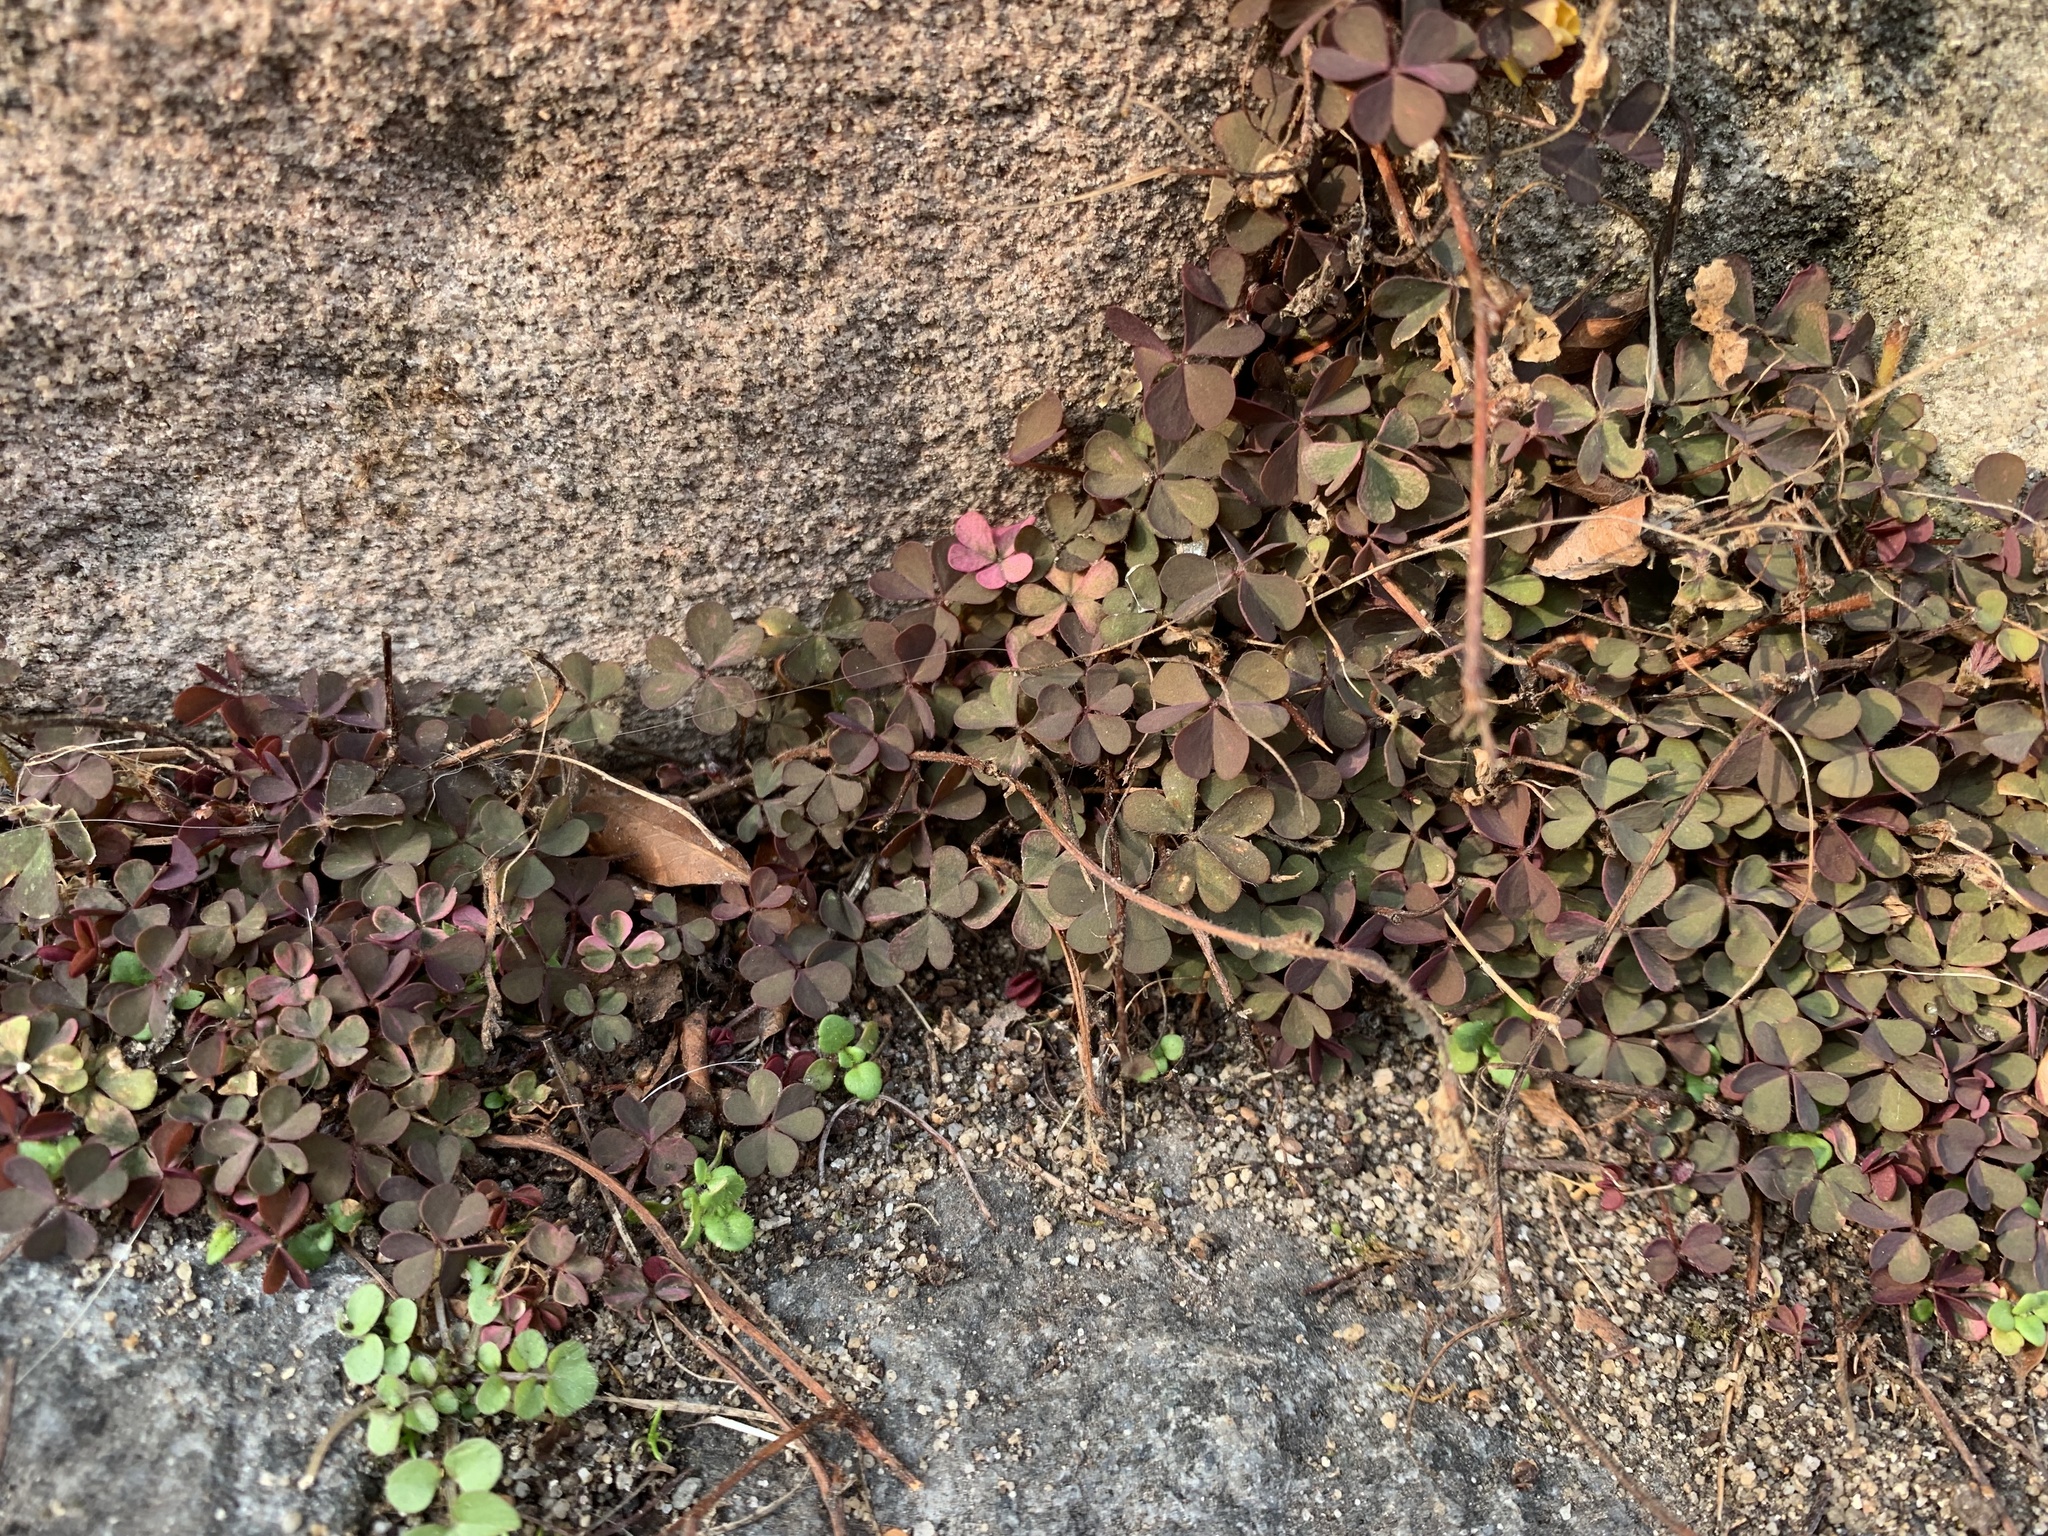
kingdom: Plantae
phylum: Tracheophyta
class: Magnoliopsida
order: Oxalidales
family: Oxalidaceae
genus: Oxalis
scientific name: Oxalis corniculata
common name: Procumbent yellow-sorrel
